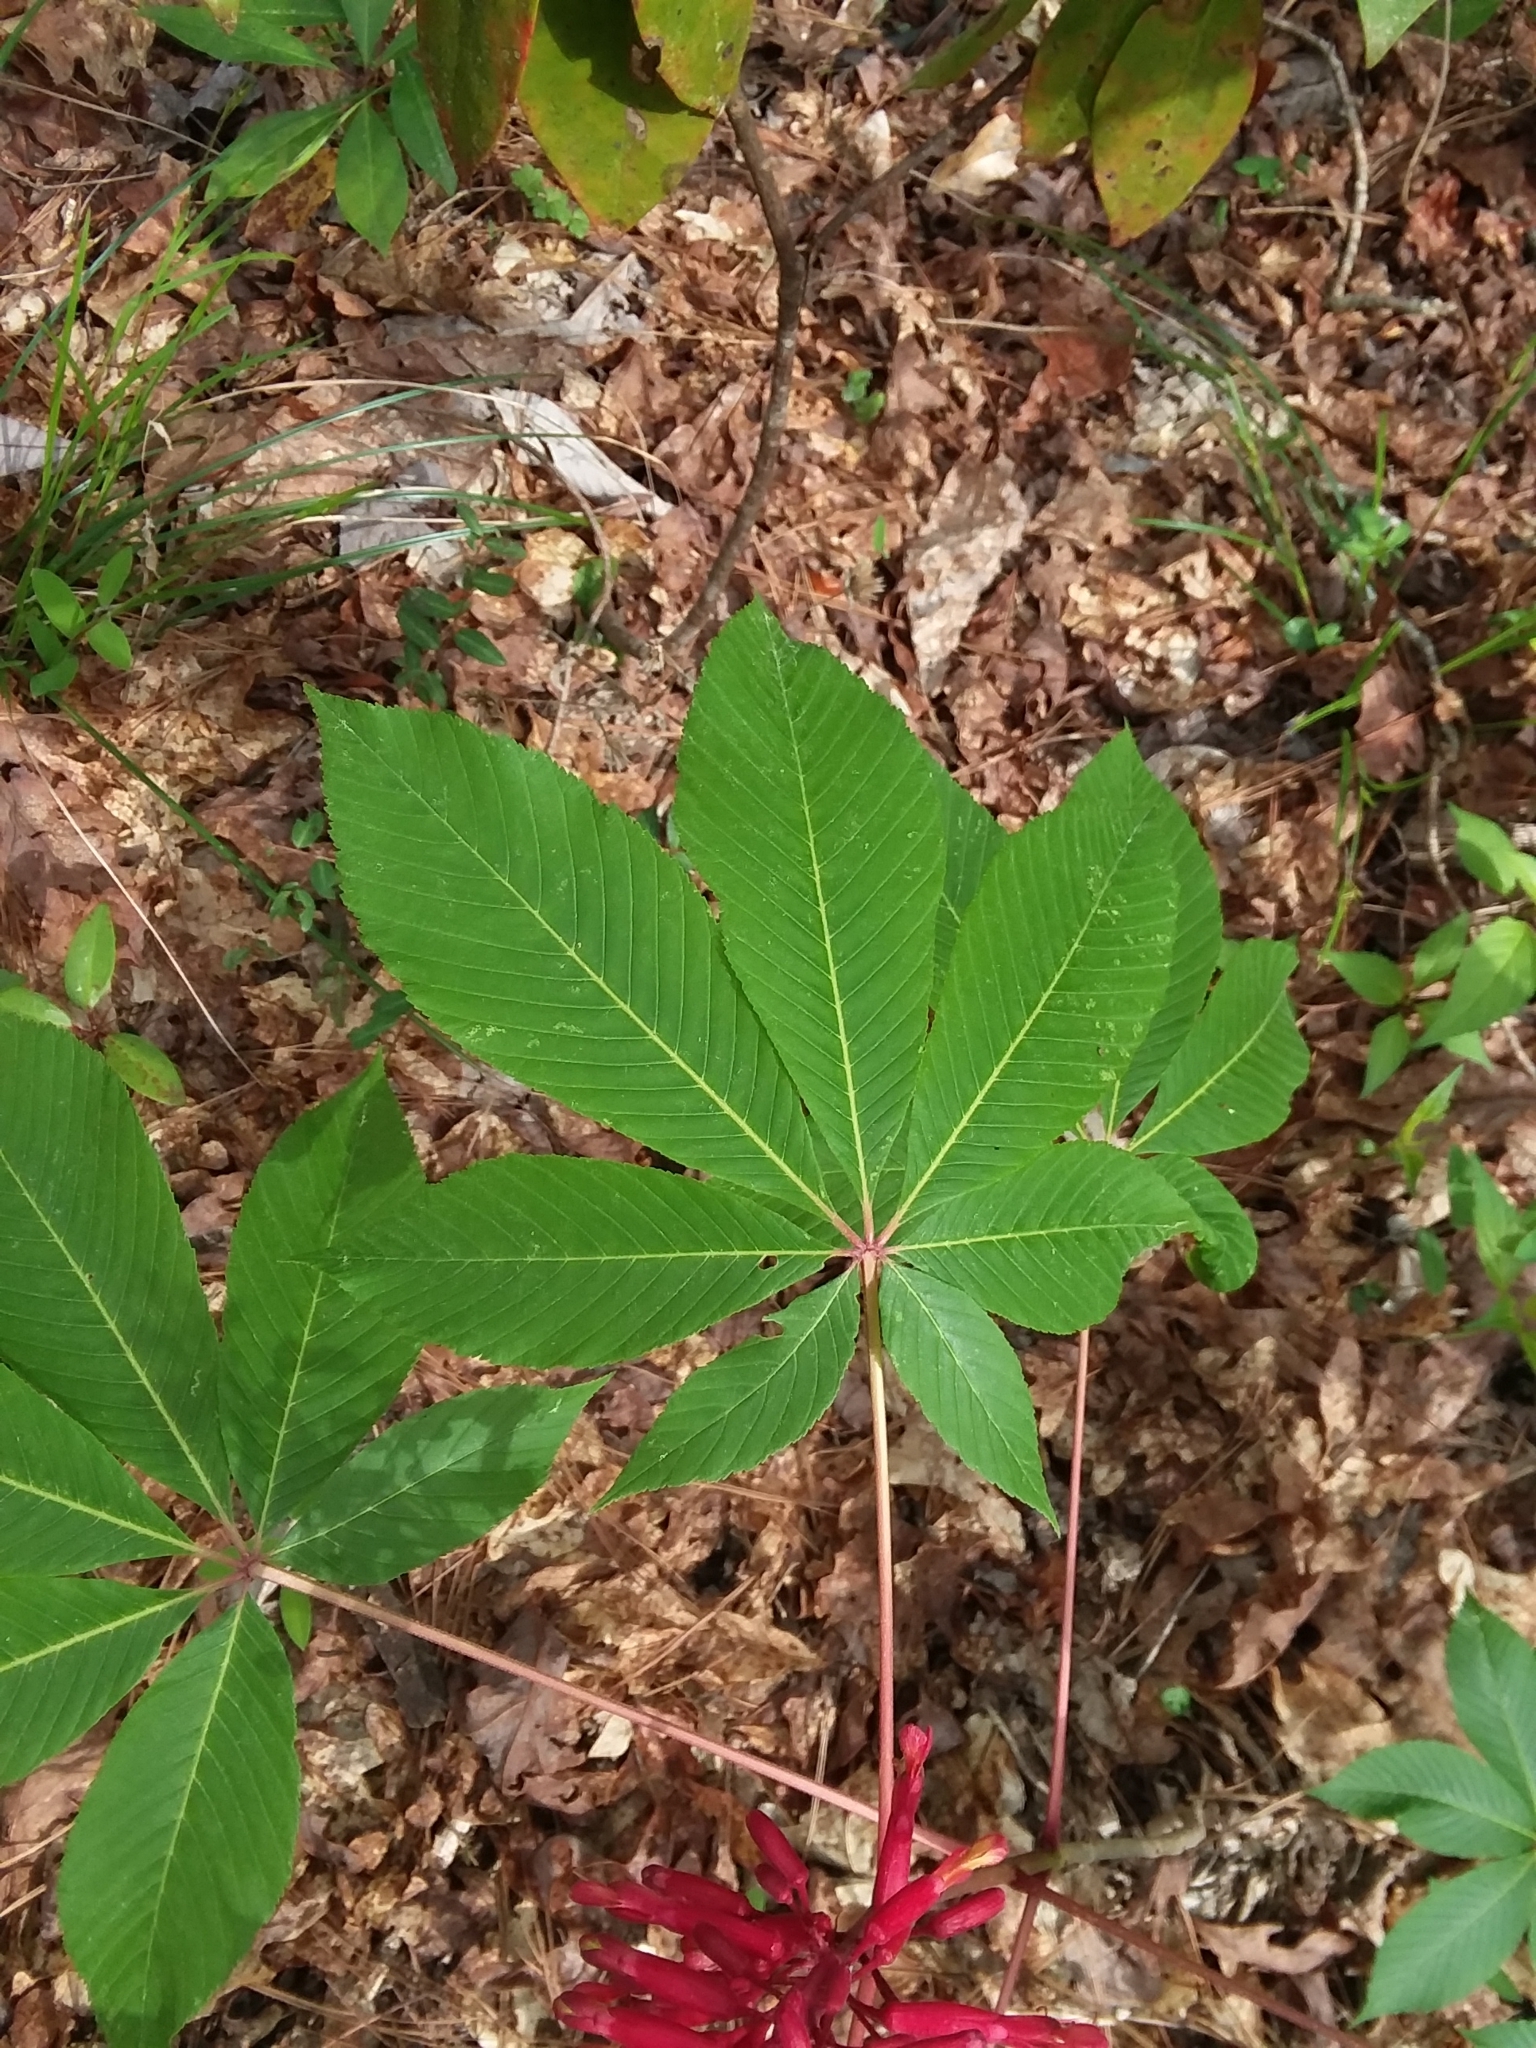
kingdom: Plantae
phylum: Tracheophyta
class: Magnoliopsida
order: Sapindales
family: Sapindaceae
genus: Aesculus
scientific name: Aesculus pavia
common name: Red buckeye
